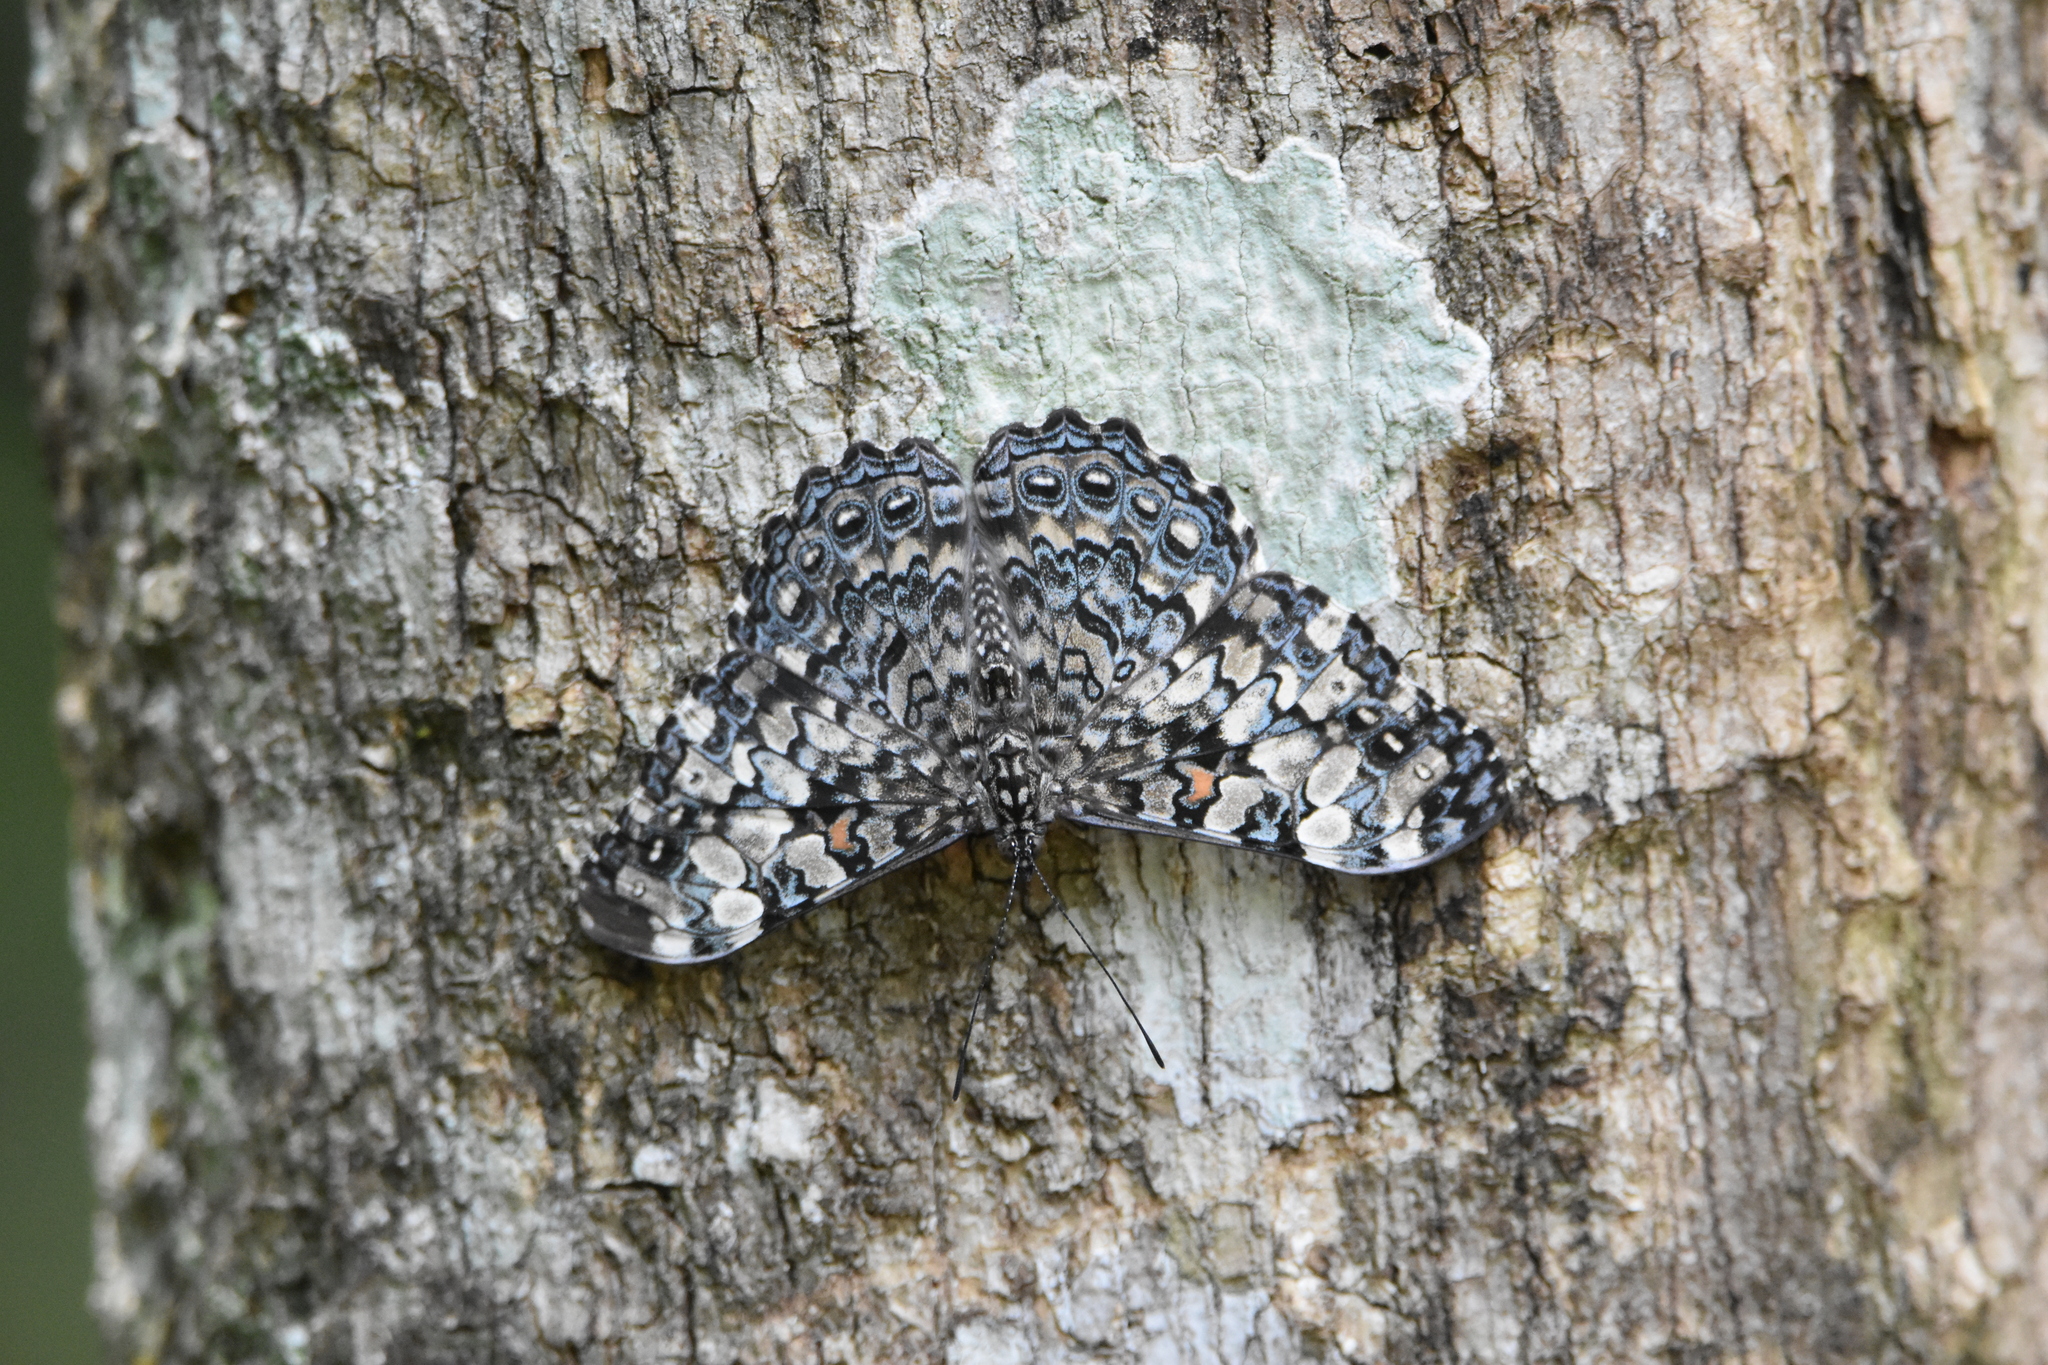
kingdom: Animalia
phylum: Arthropoda
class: Insecta
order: Lepidoptera
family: Nymphalidae
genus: Hamadryas
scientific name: Hamadryas epinome
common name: Epinome cracker
